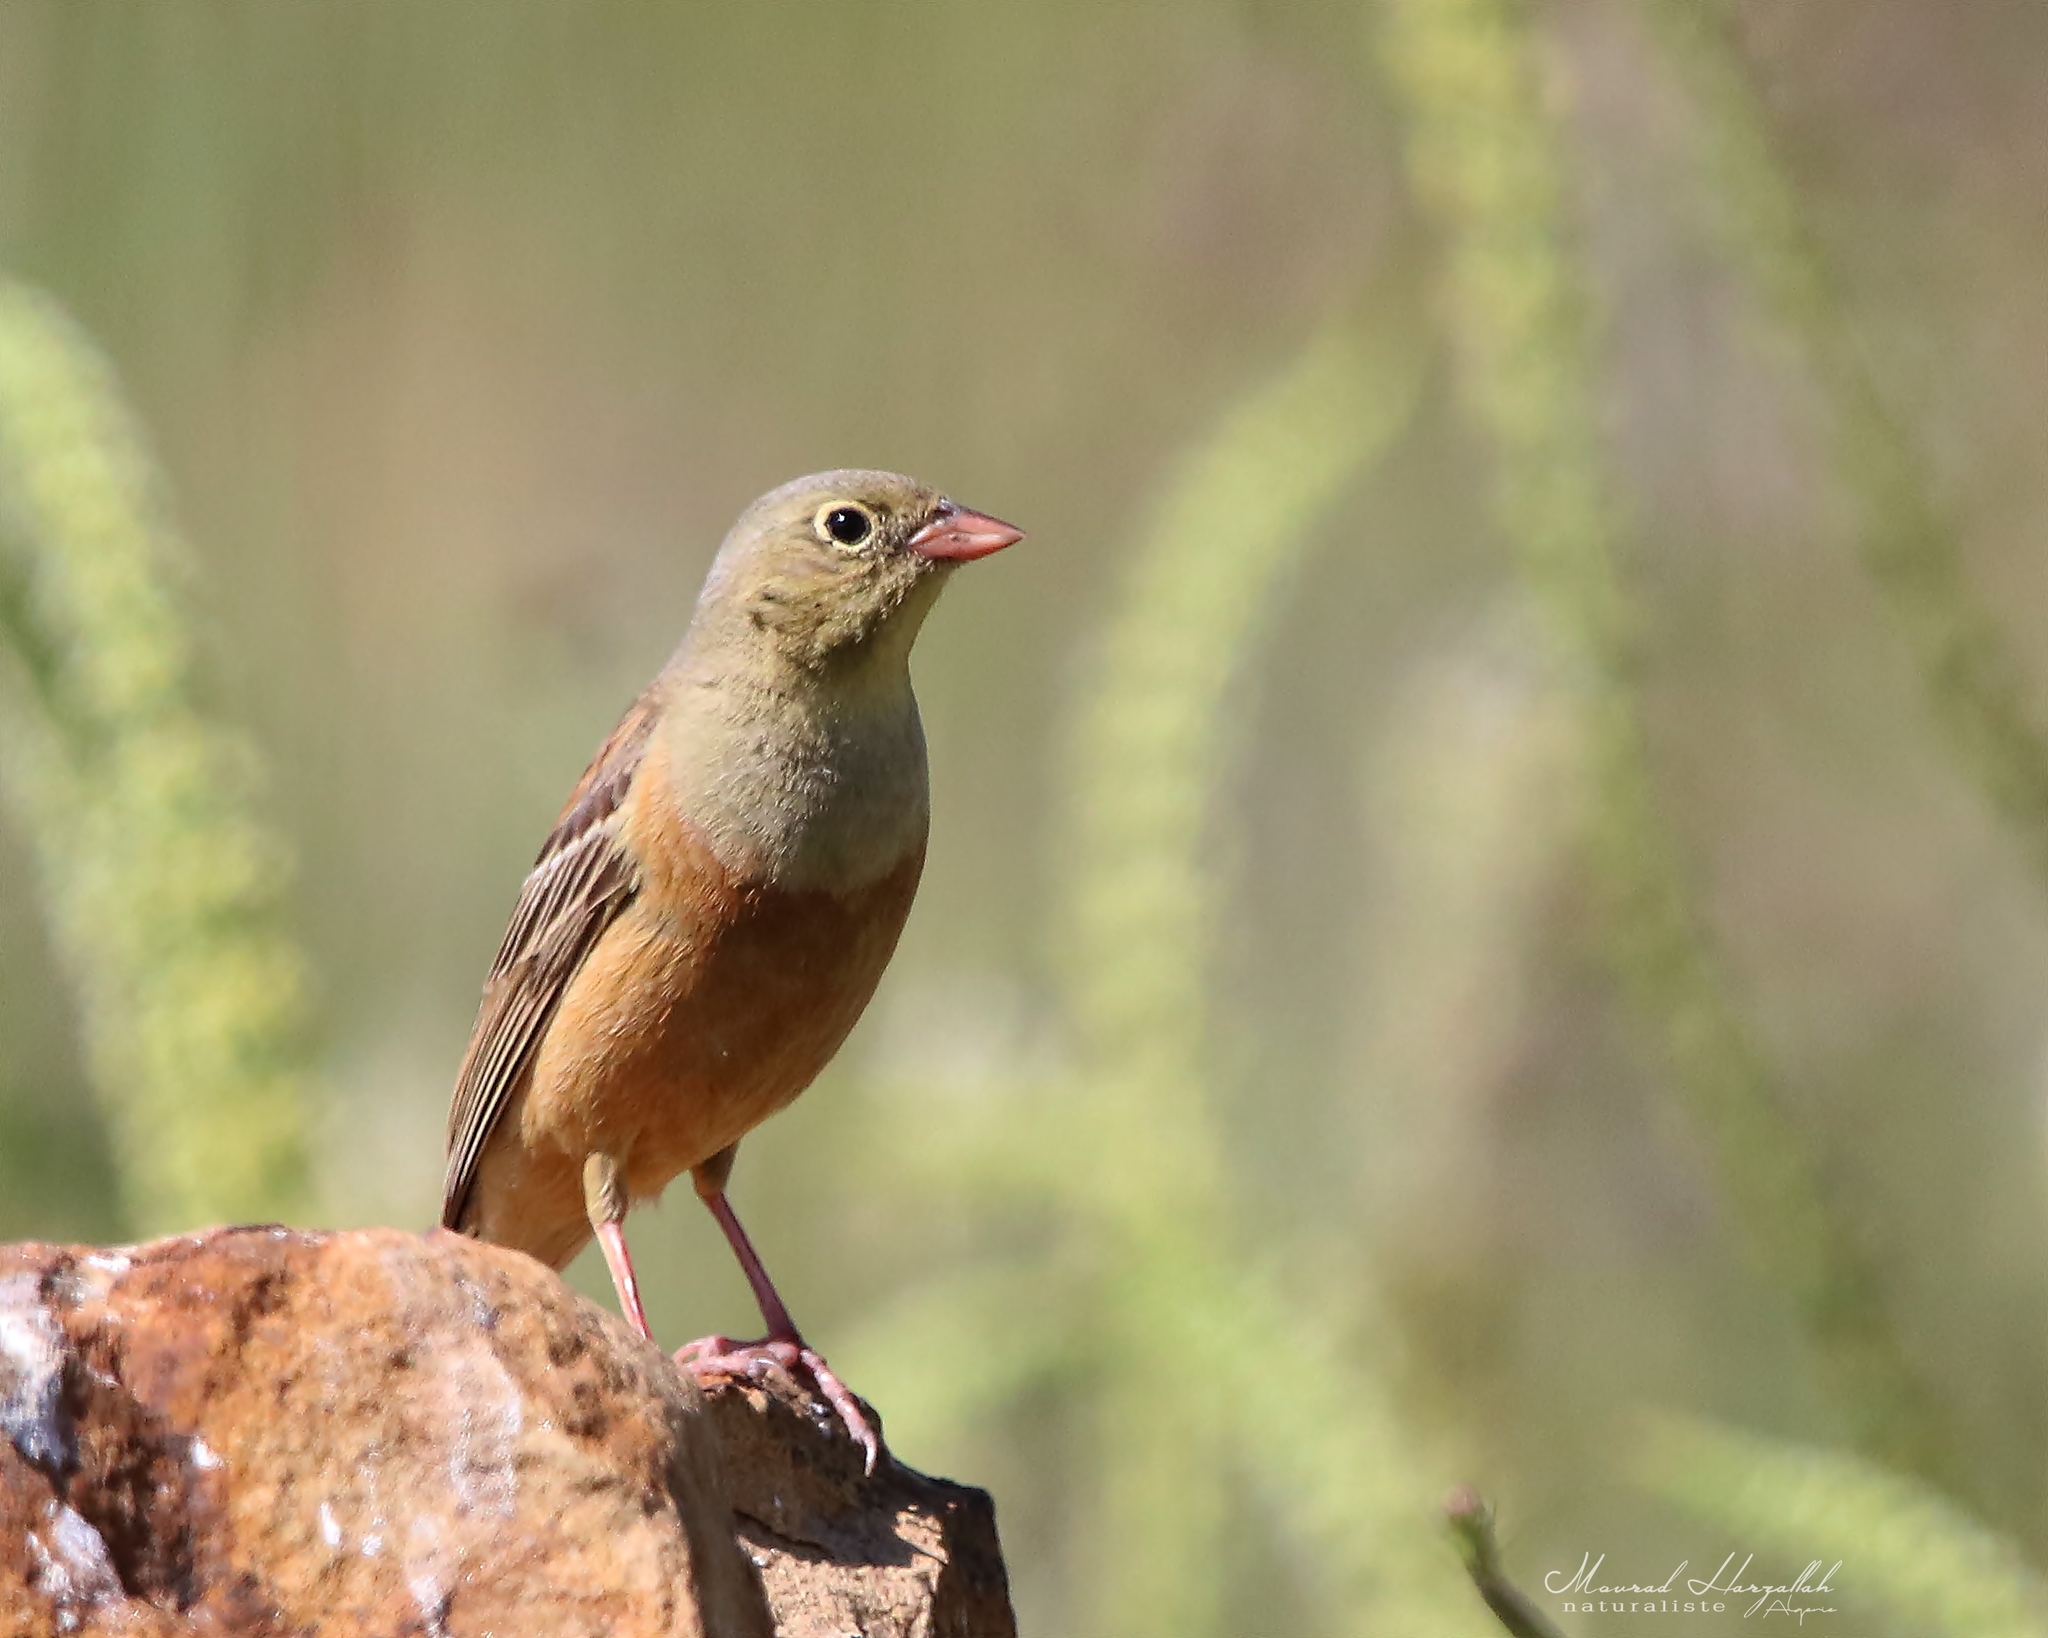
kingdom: Animalia
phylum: Chordata
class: Aves
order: Passeriformes
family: Emberizidae
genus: Emberiza
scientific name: Emberiza hortulana
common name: Ortolan bunting
